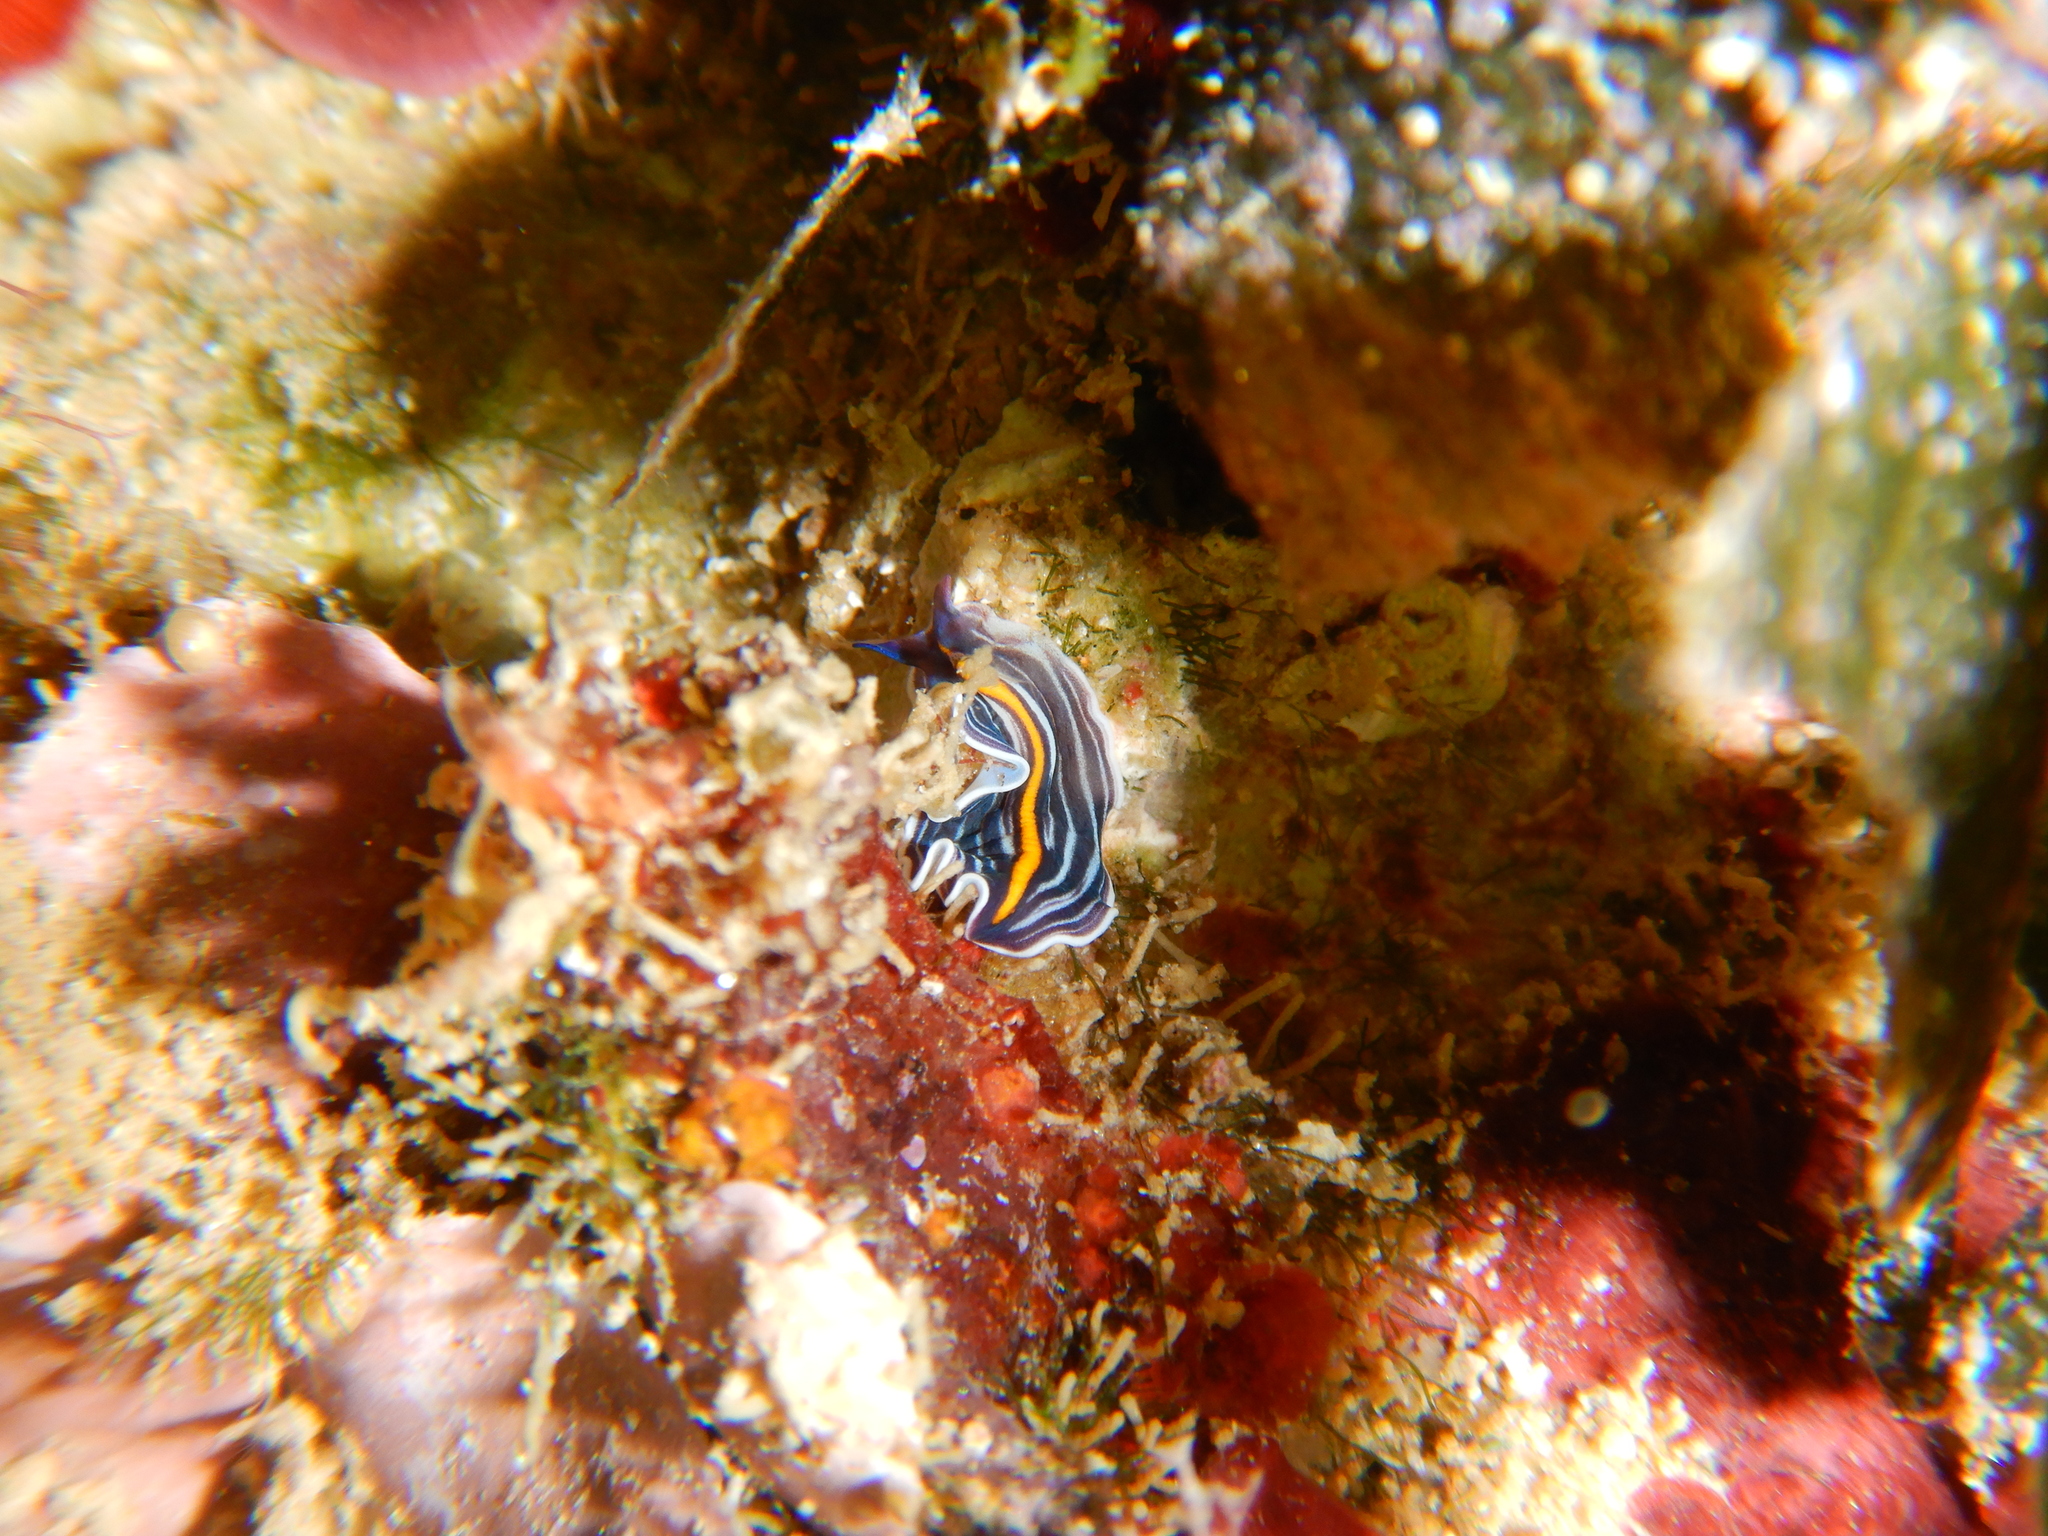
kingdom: Animalia
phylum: Platyhelminthes
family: Euryleptidae
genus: Prostheceraeus
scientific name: Prostheceraeus giesbrechtii
